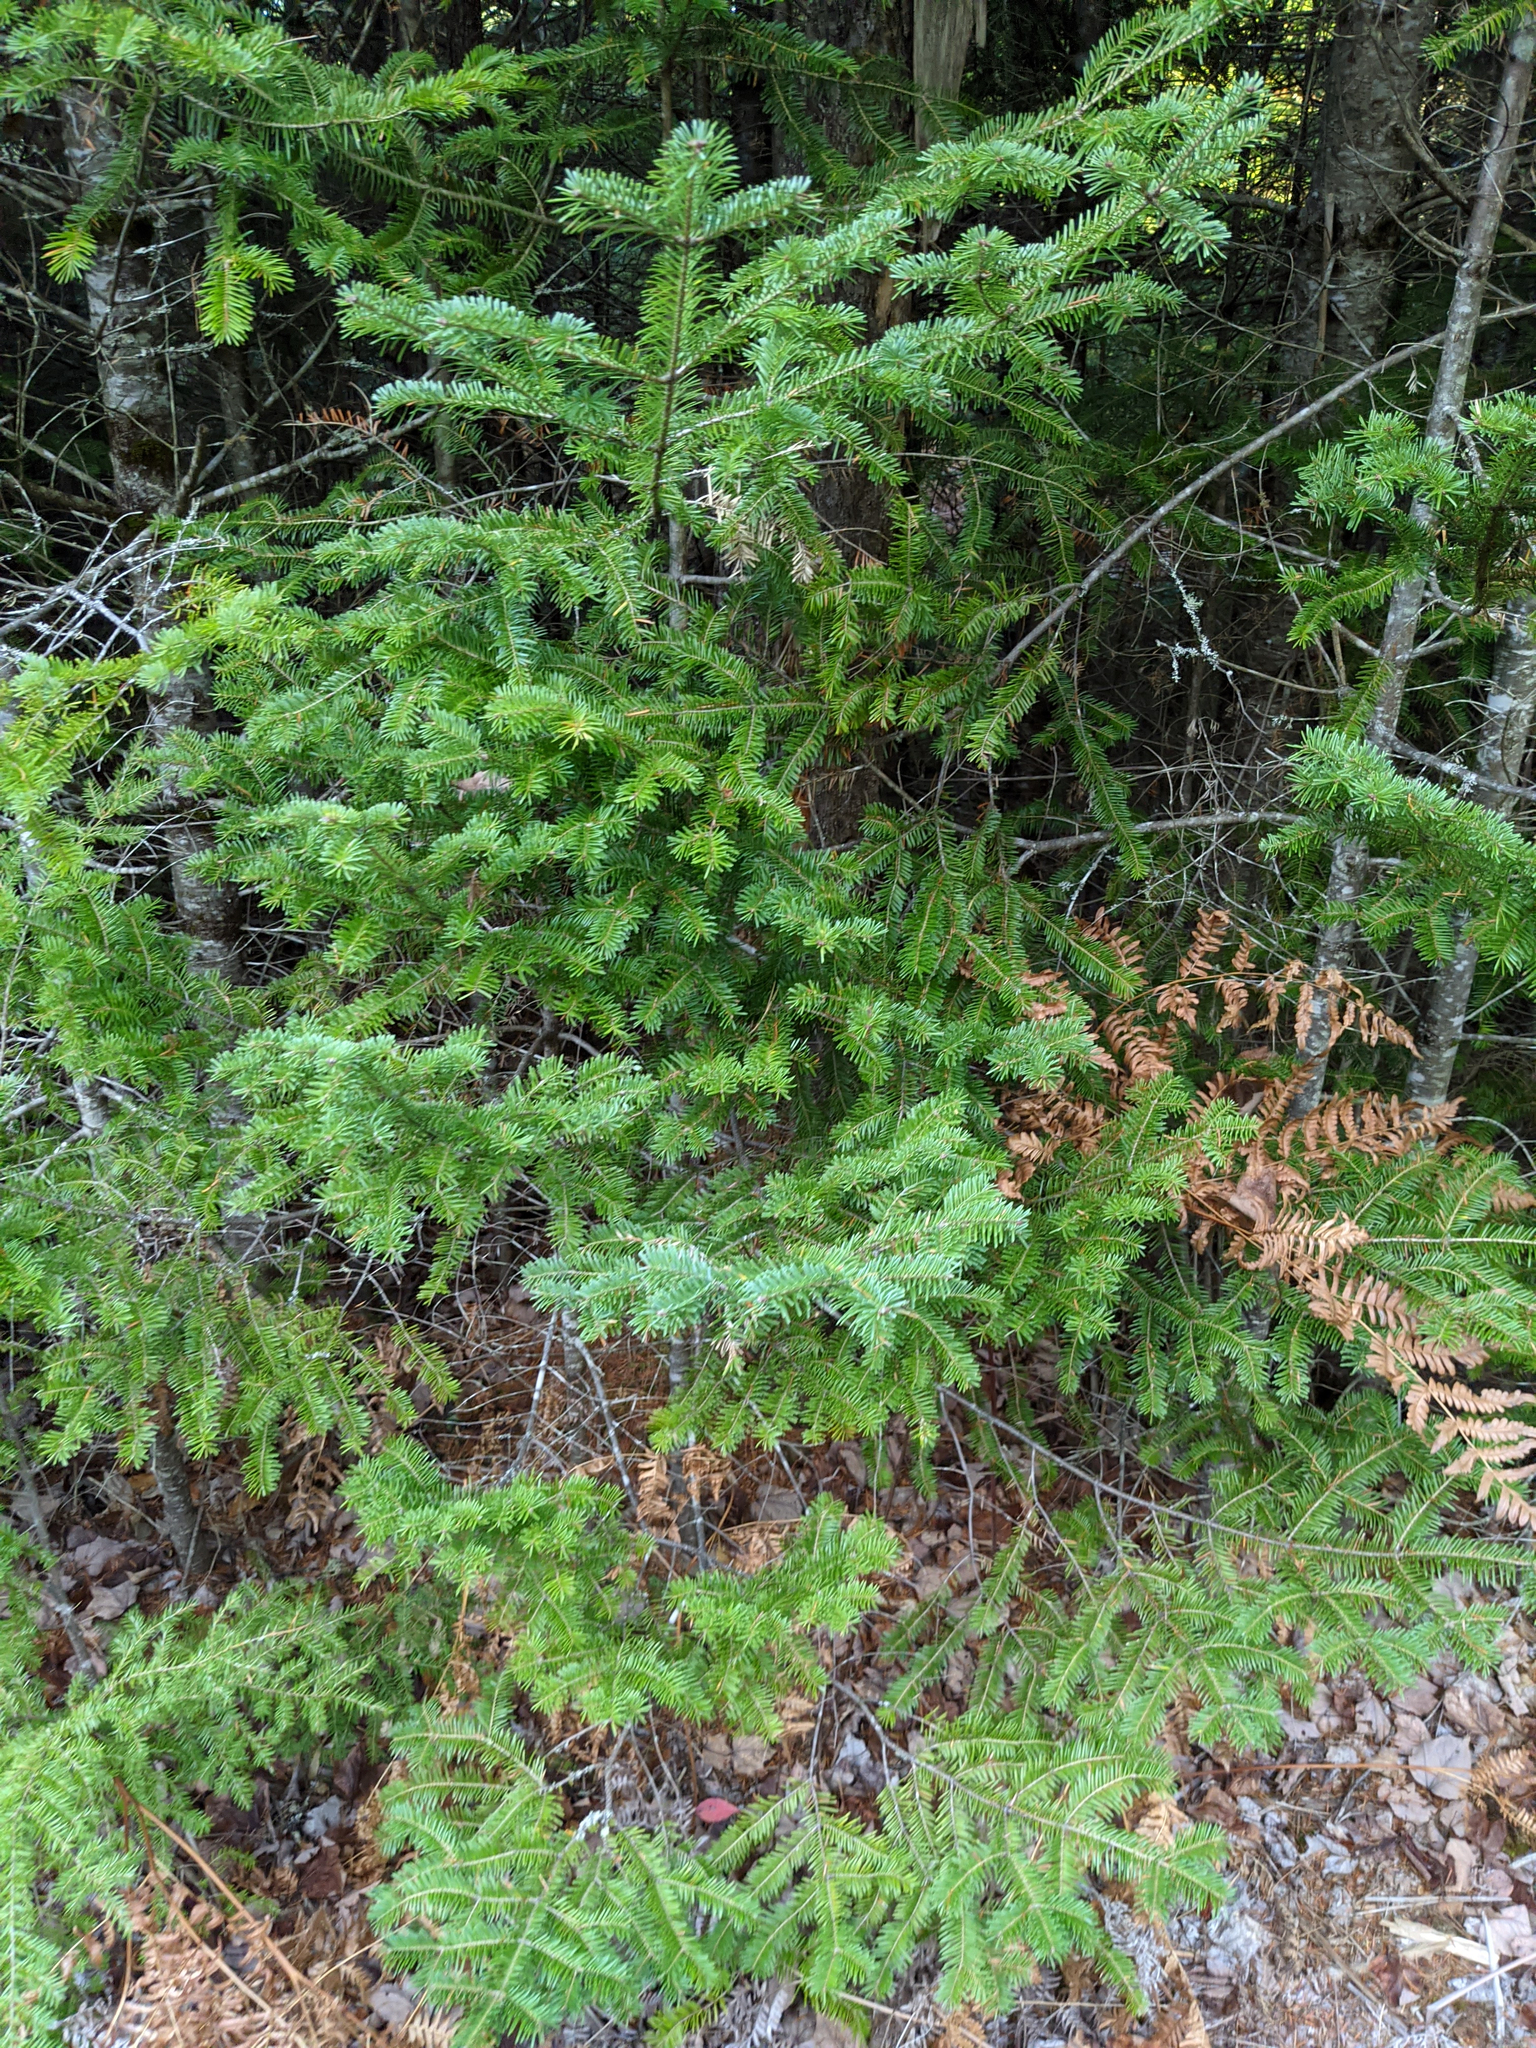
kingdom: Plantae
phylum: Tracheophyta
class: Pinopsida
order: Pinales
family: Pinaceae
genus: Abies
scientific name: Abies balsamea
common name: Balsam fir
